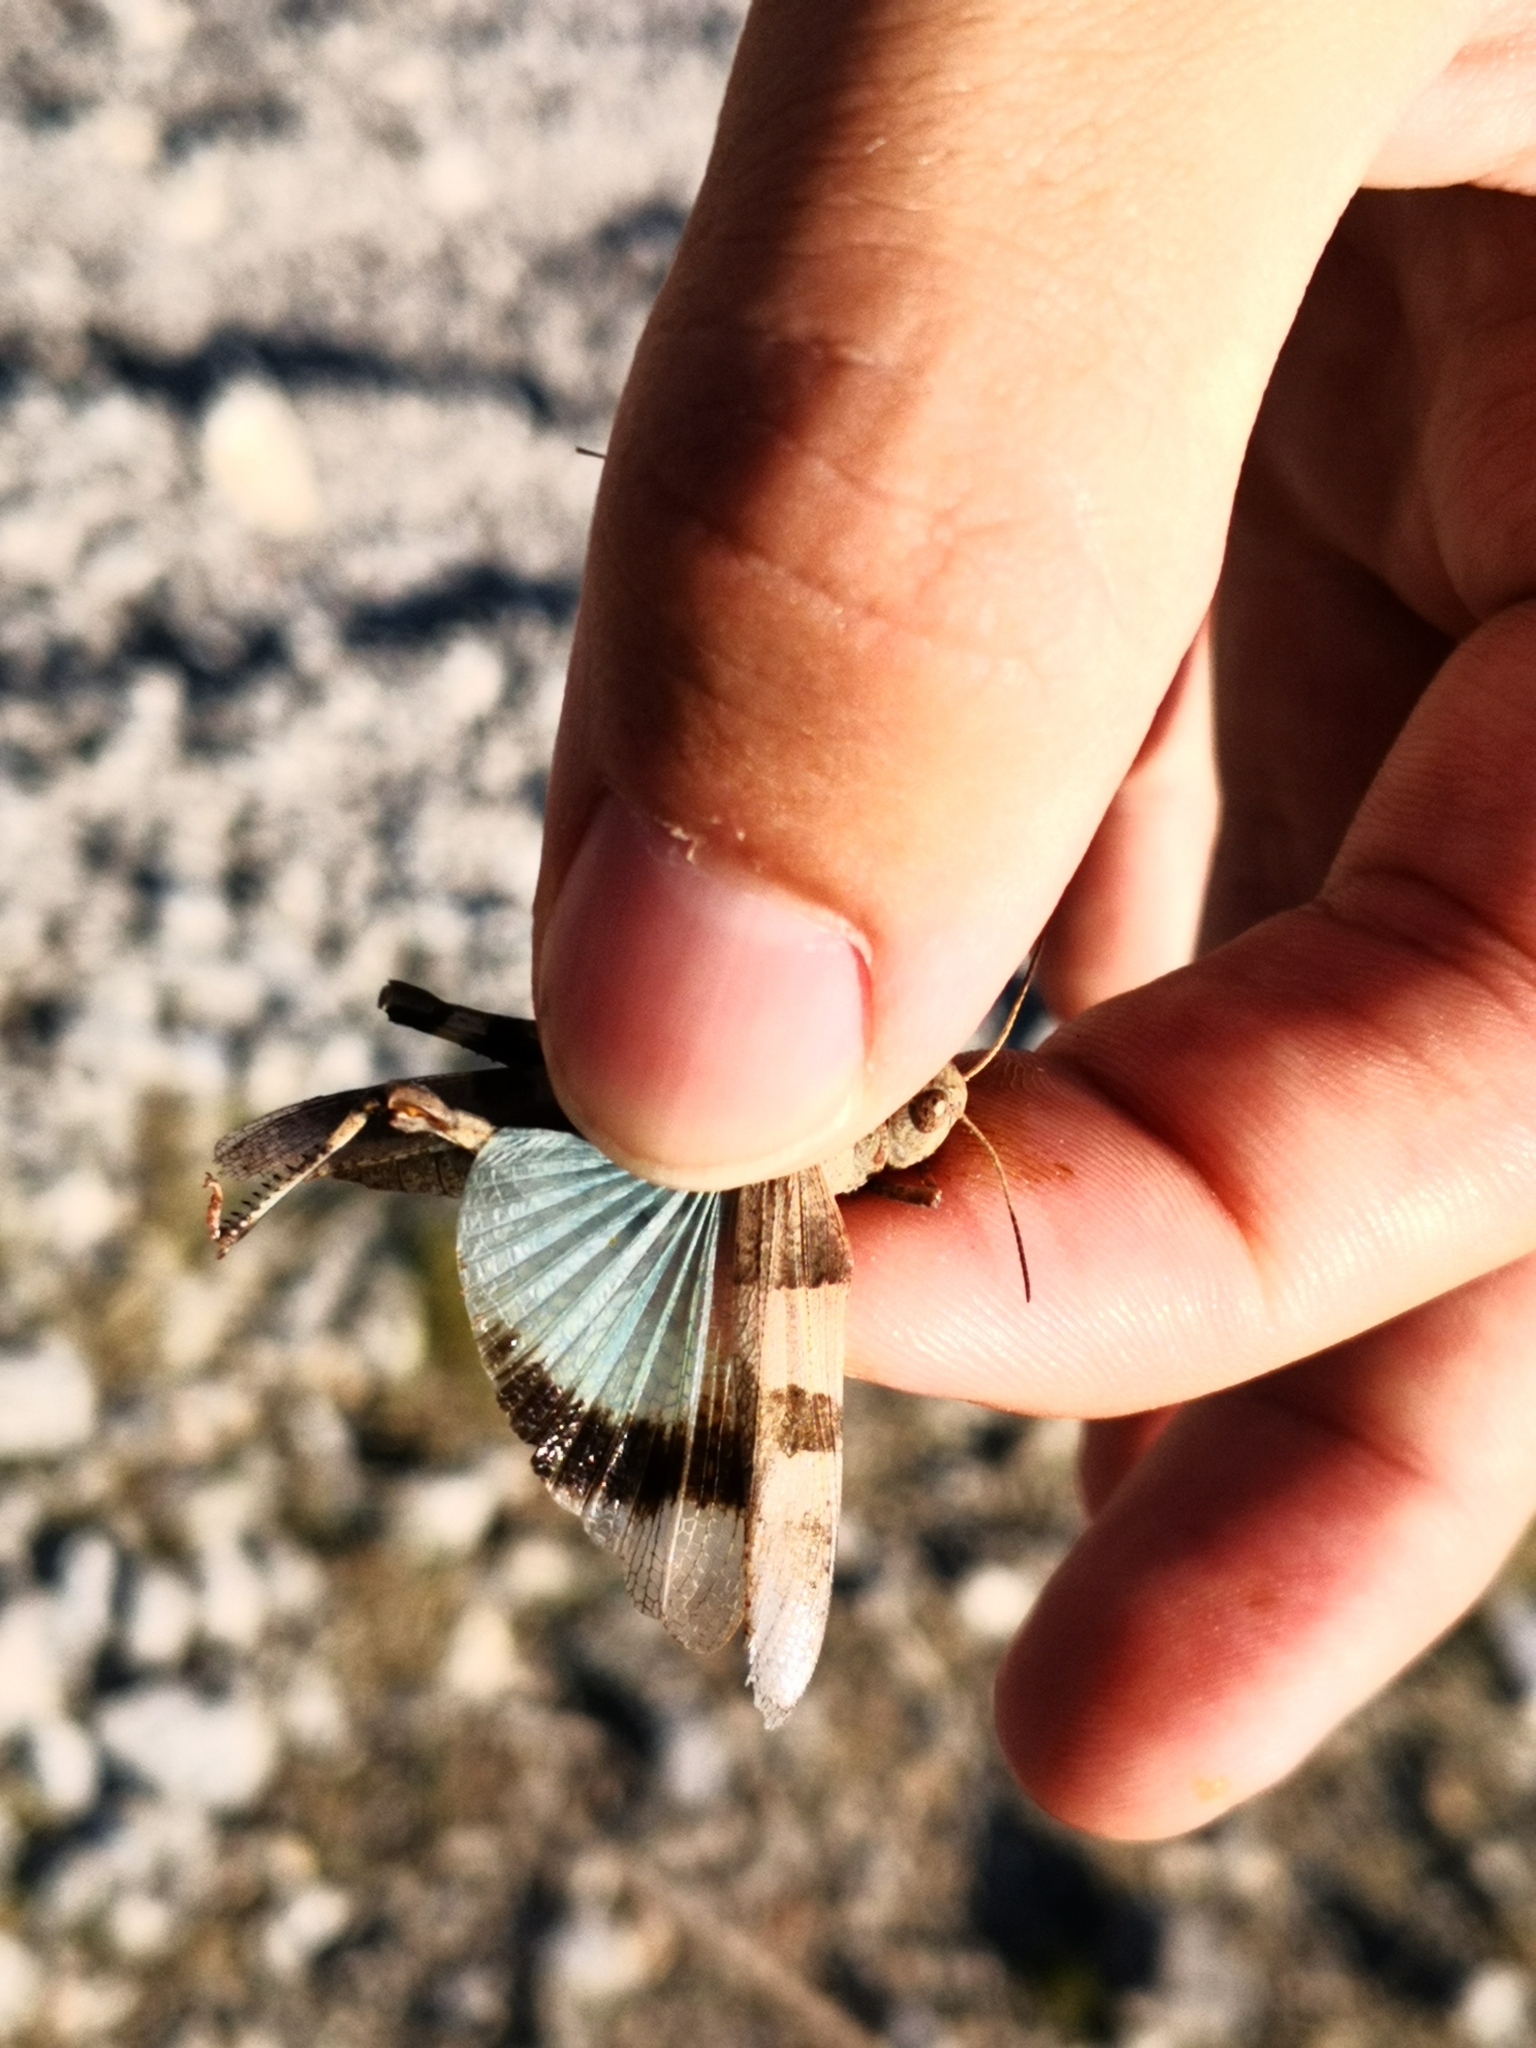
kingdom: Animalia
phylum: Arthropoda
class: Insecta
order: Orthoptera
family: Acrididae
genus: Oedipoda
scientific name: Oedipoda caerulescens
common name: Blue-winged grasshopper
